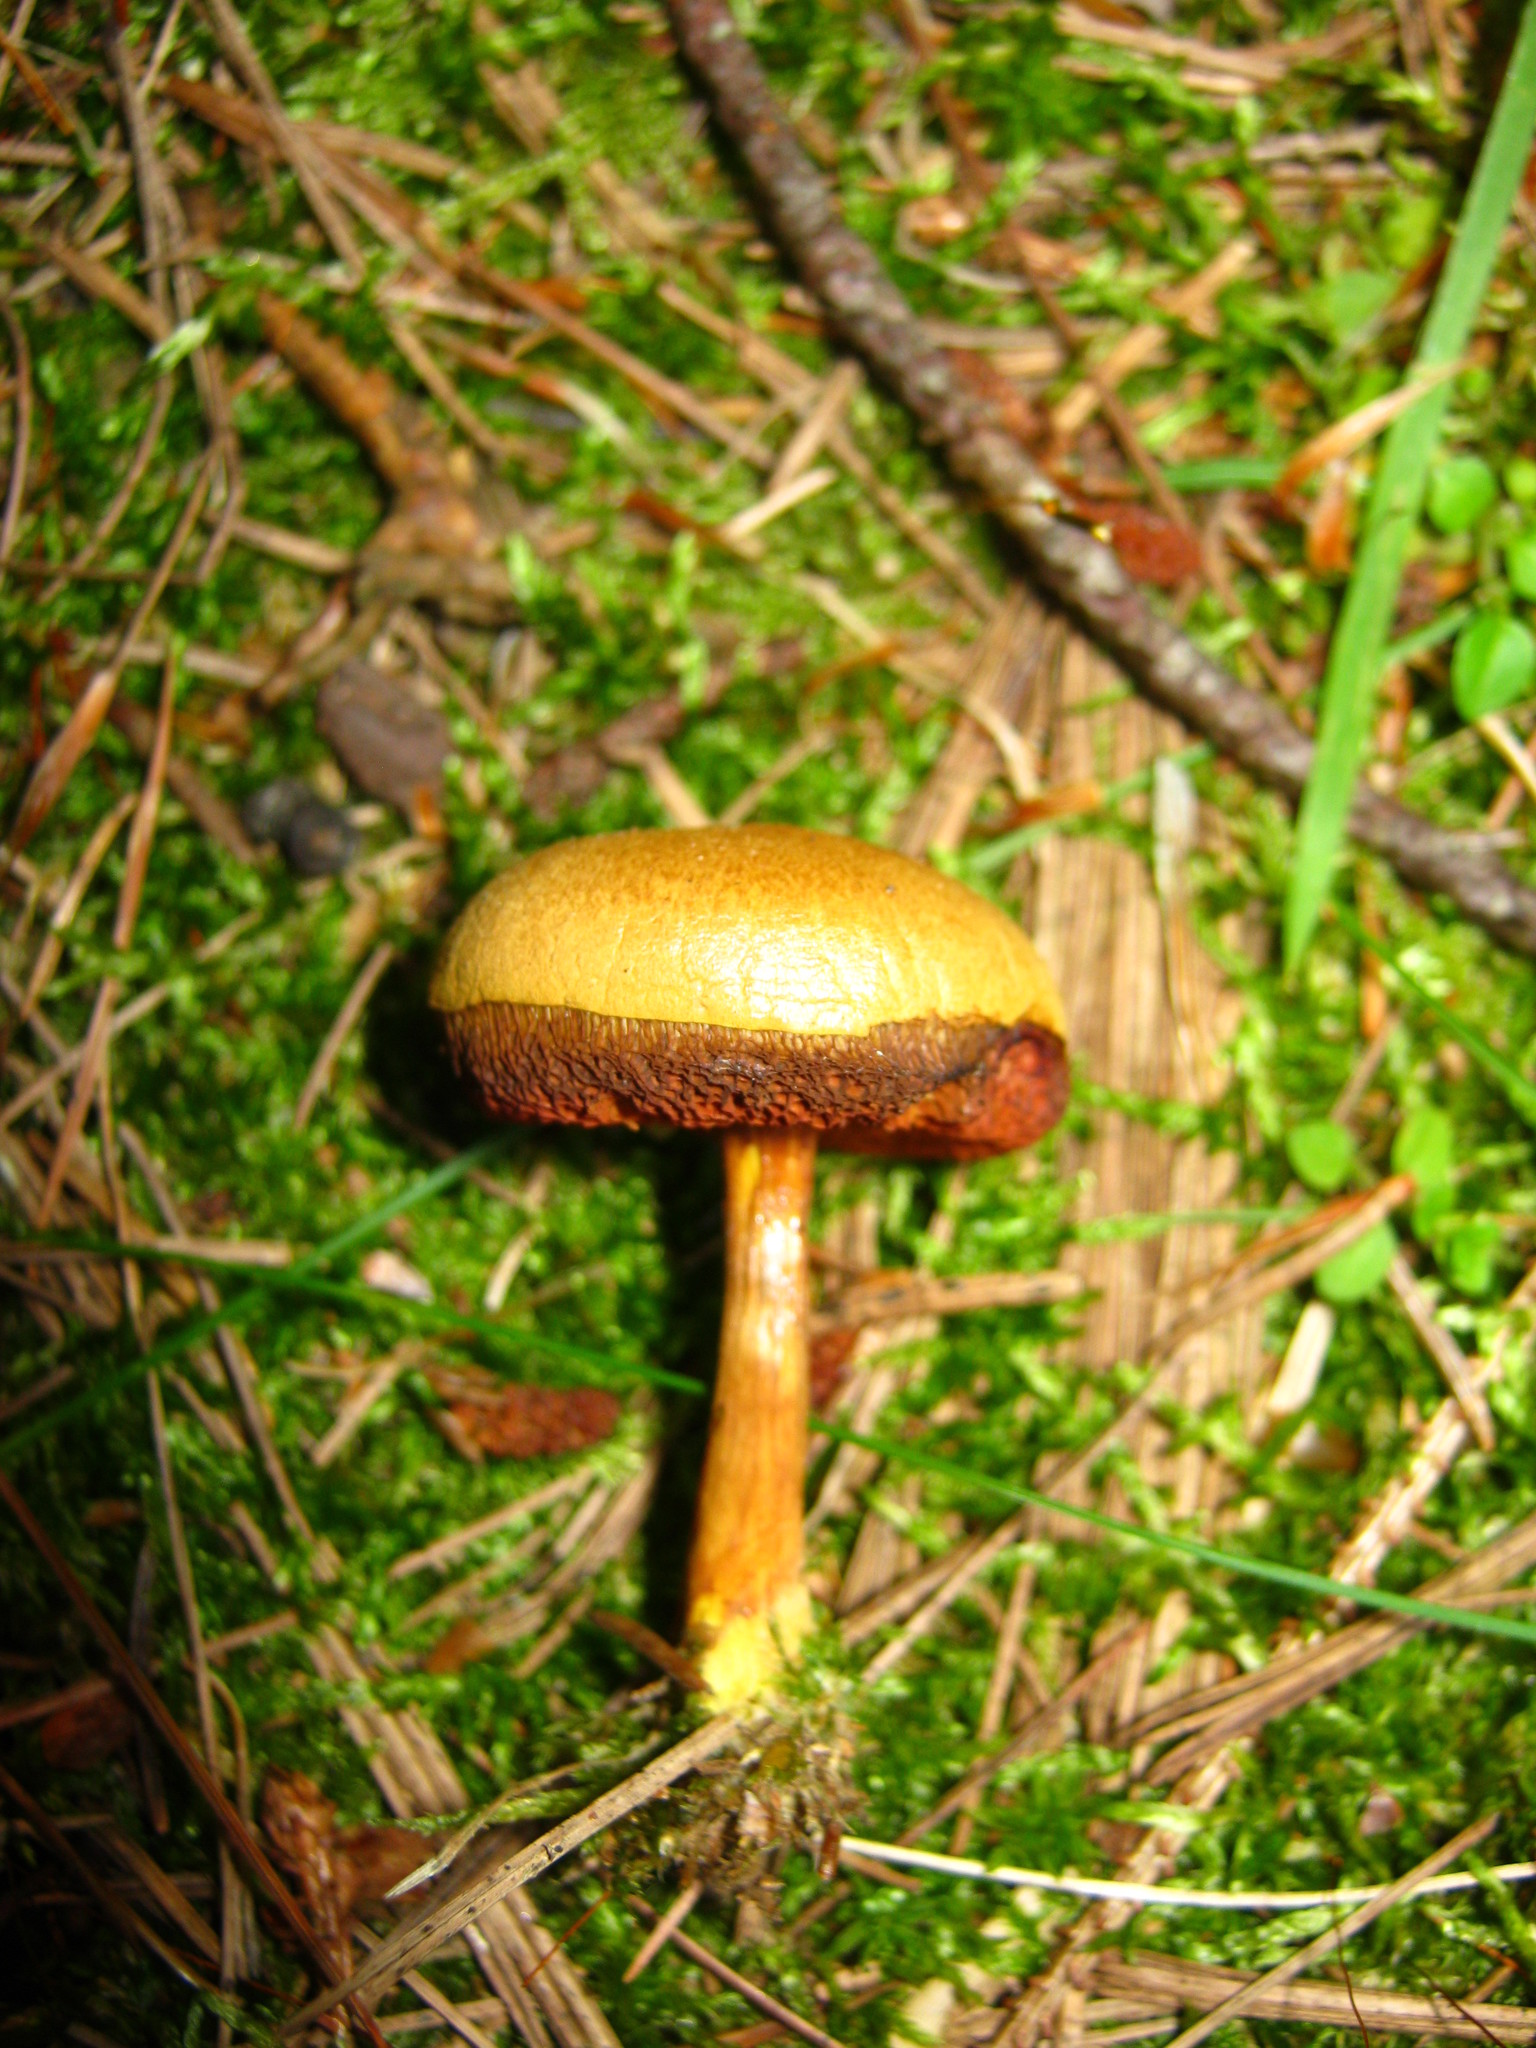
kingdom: Fungi
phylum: Basidiomycota
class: Agaricomycetes
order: Boletales
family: Boletaceae
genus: Chalciporus
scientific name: Chalciporus piperatus
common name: Peppery bolete
